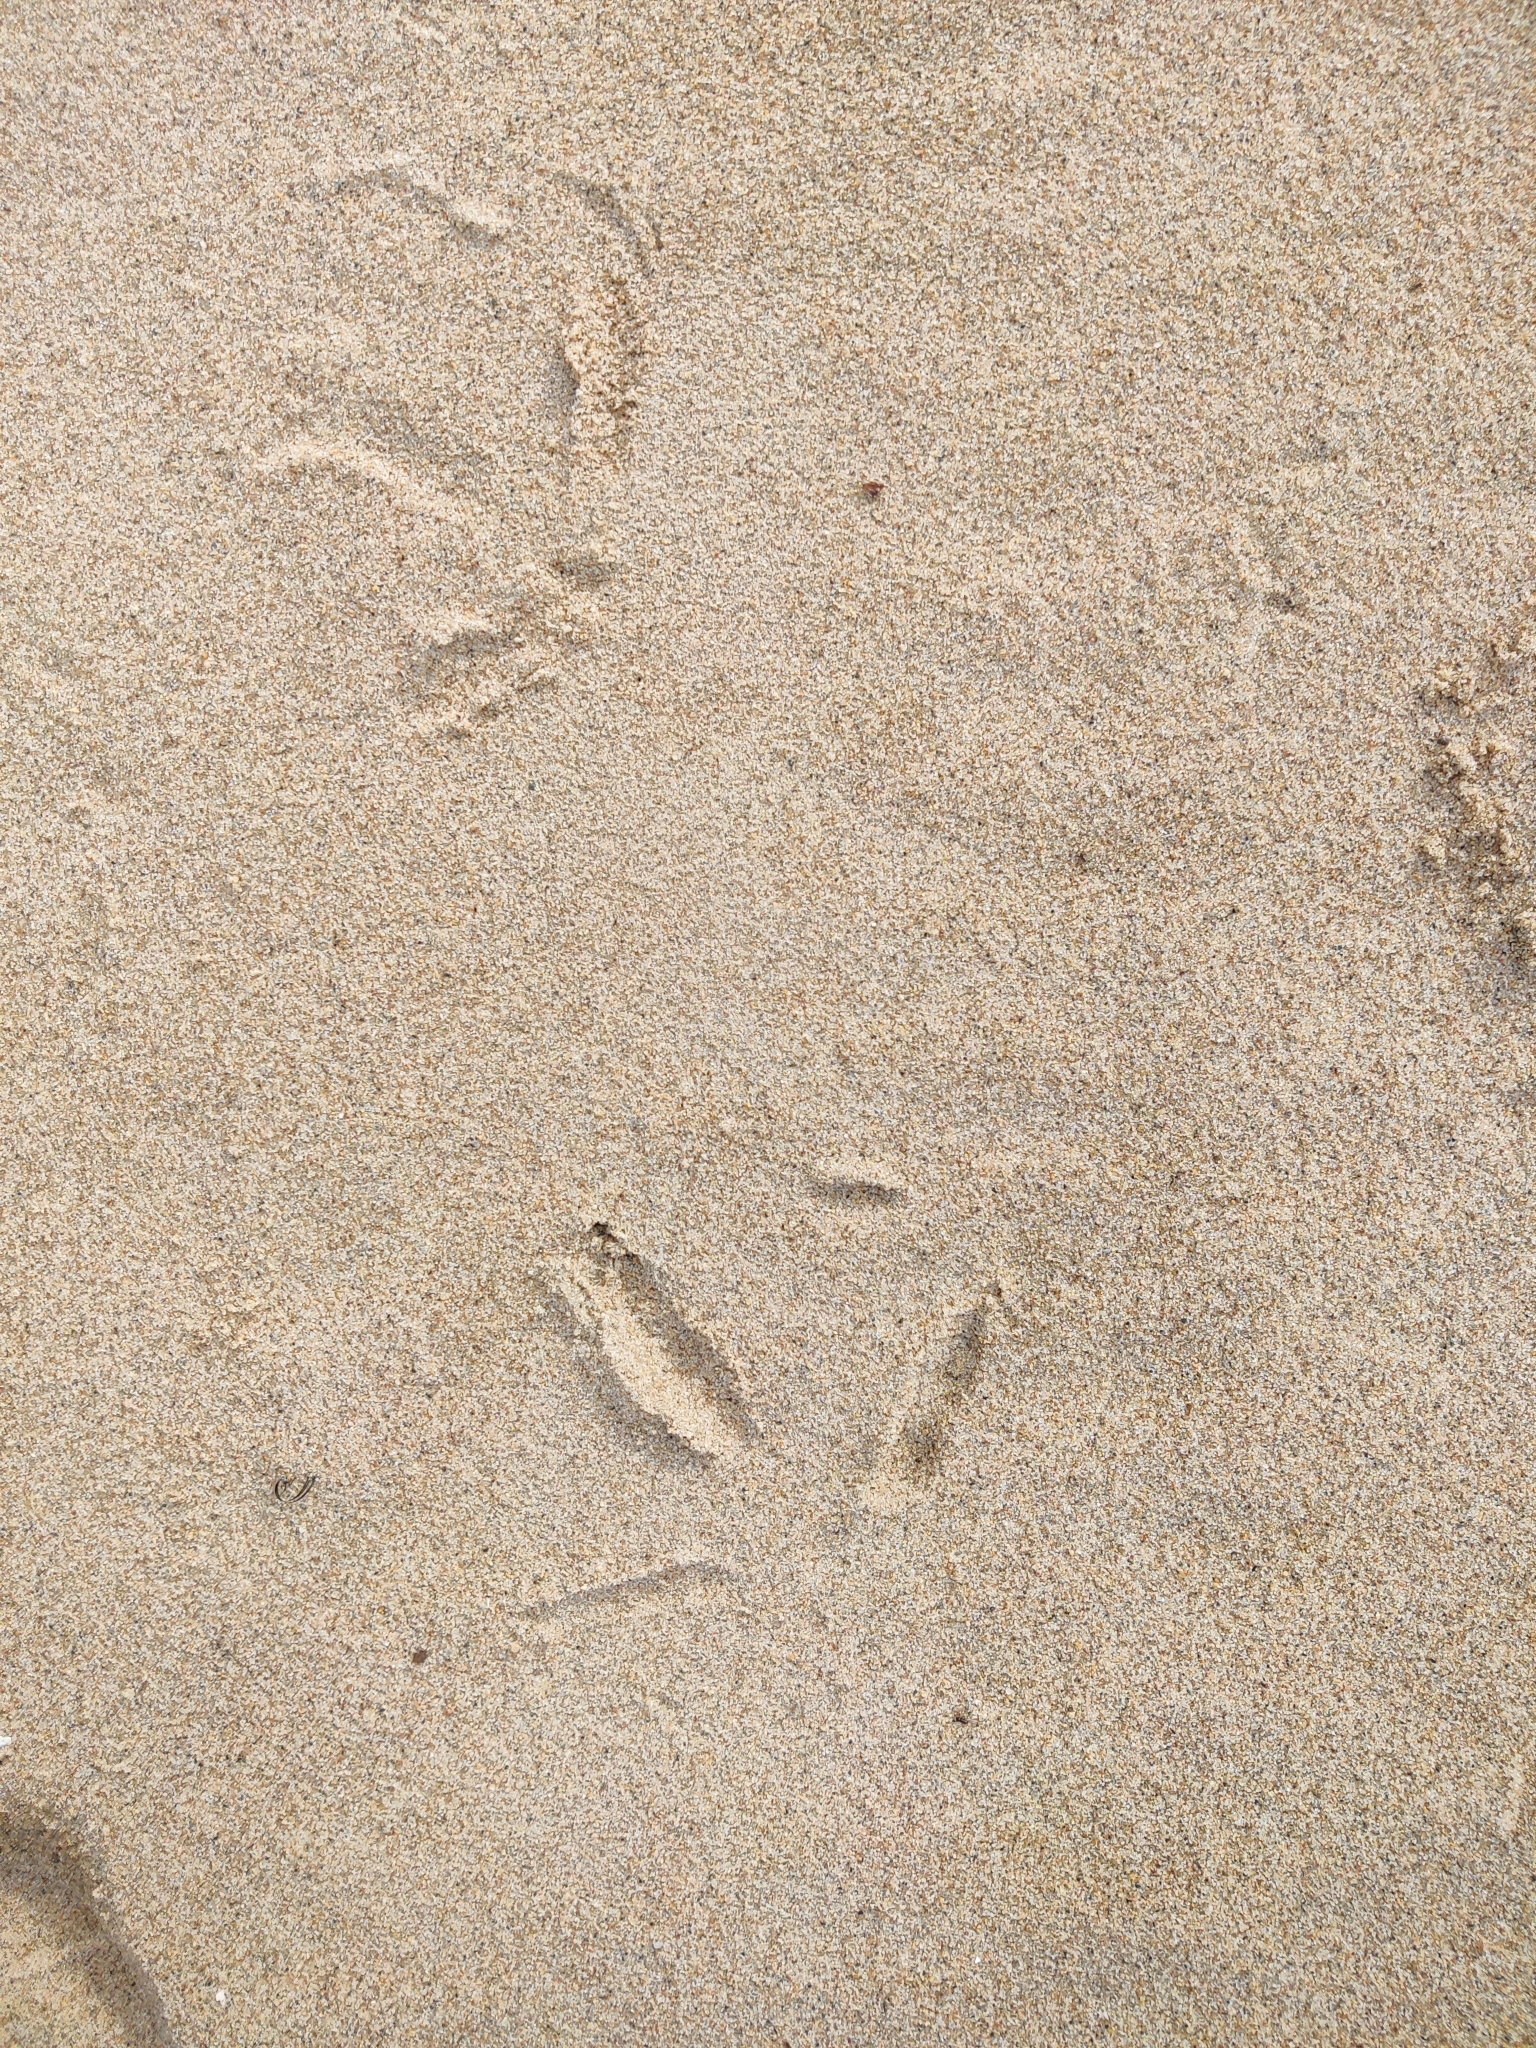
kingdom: Animalia
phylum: Chordata
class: Aves
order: Gruiformes
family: Gruidae
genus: Grus
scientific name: Grus grus
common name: Common crane
